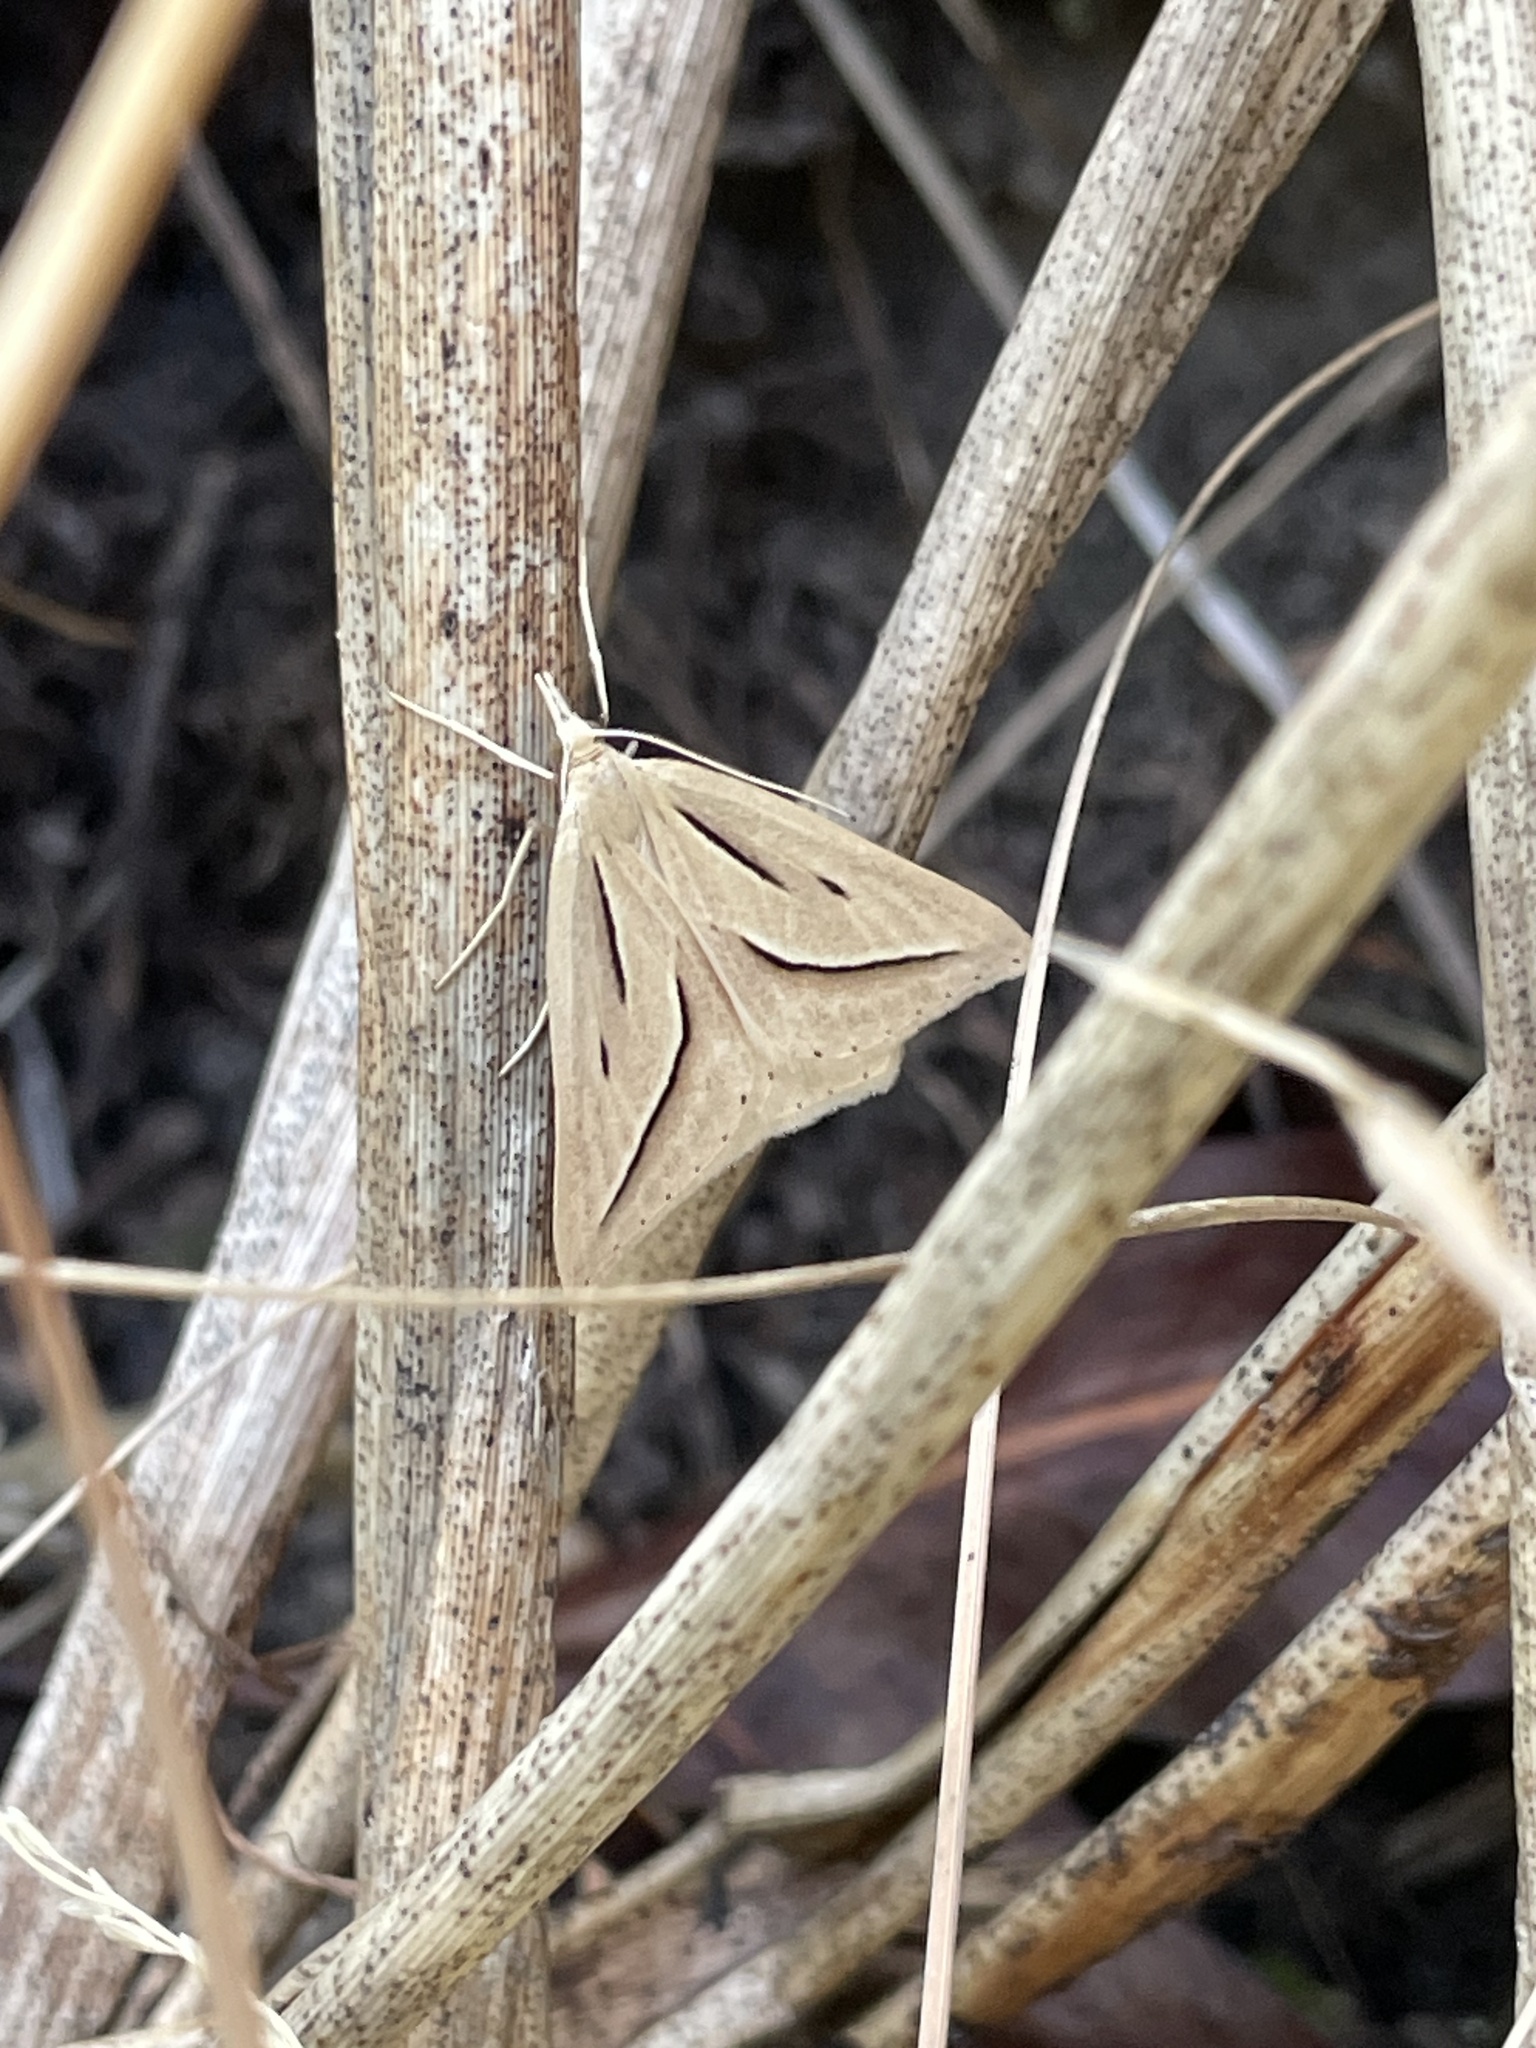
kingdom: Animalia
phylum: Arthropoda
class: Insecta
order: Lepidoptera
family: Geometridae
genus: Samana
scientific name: Samana falcatella
